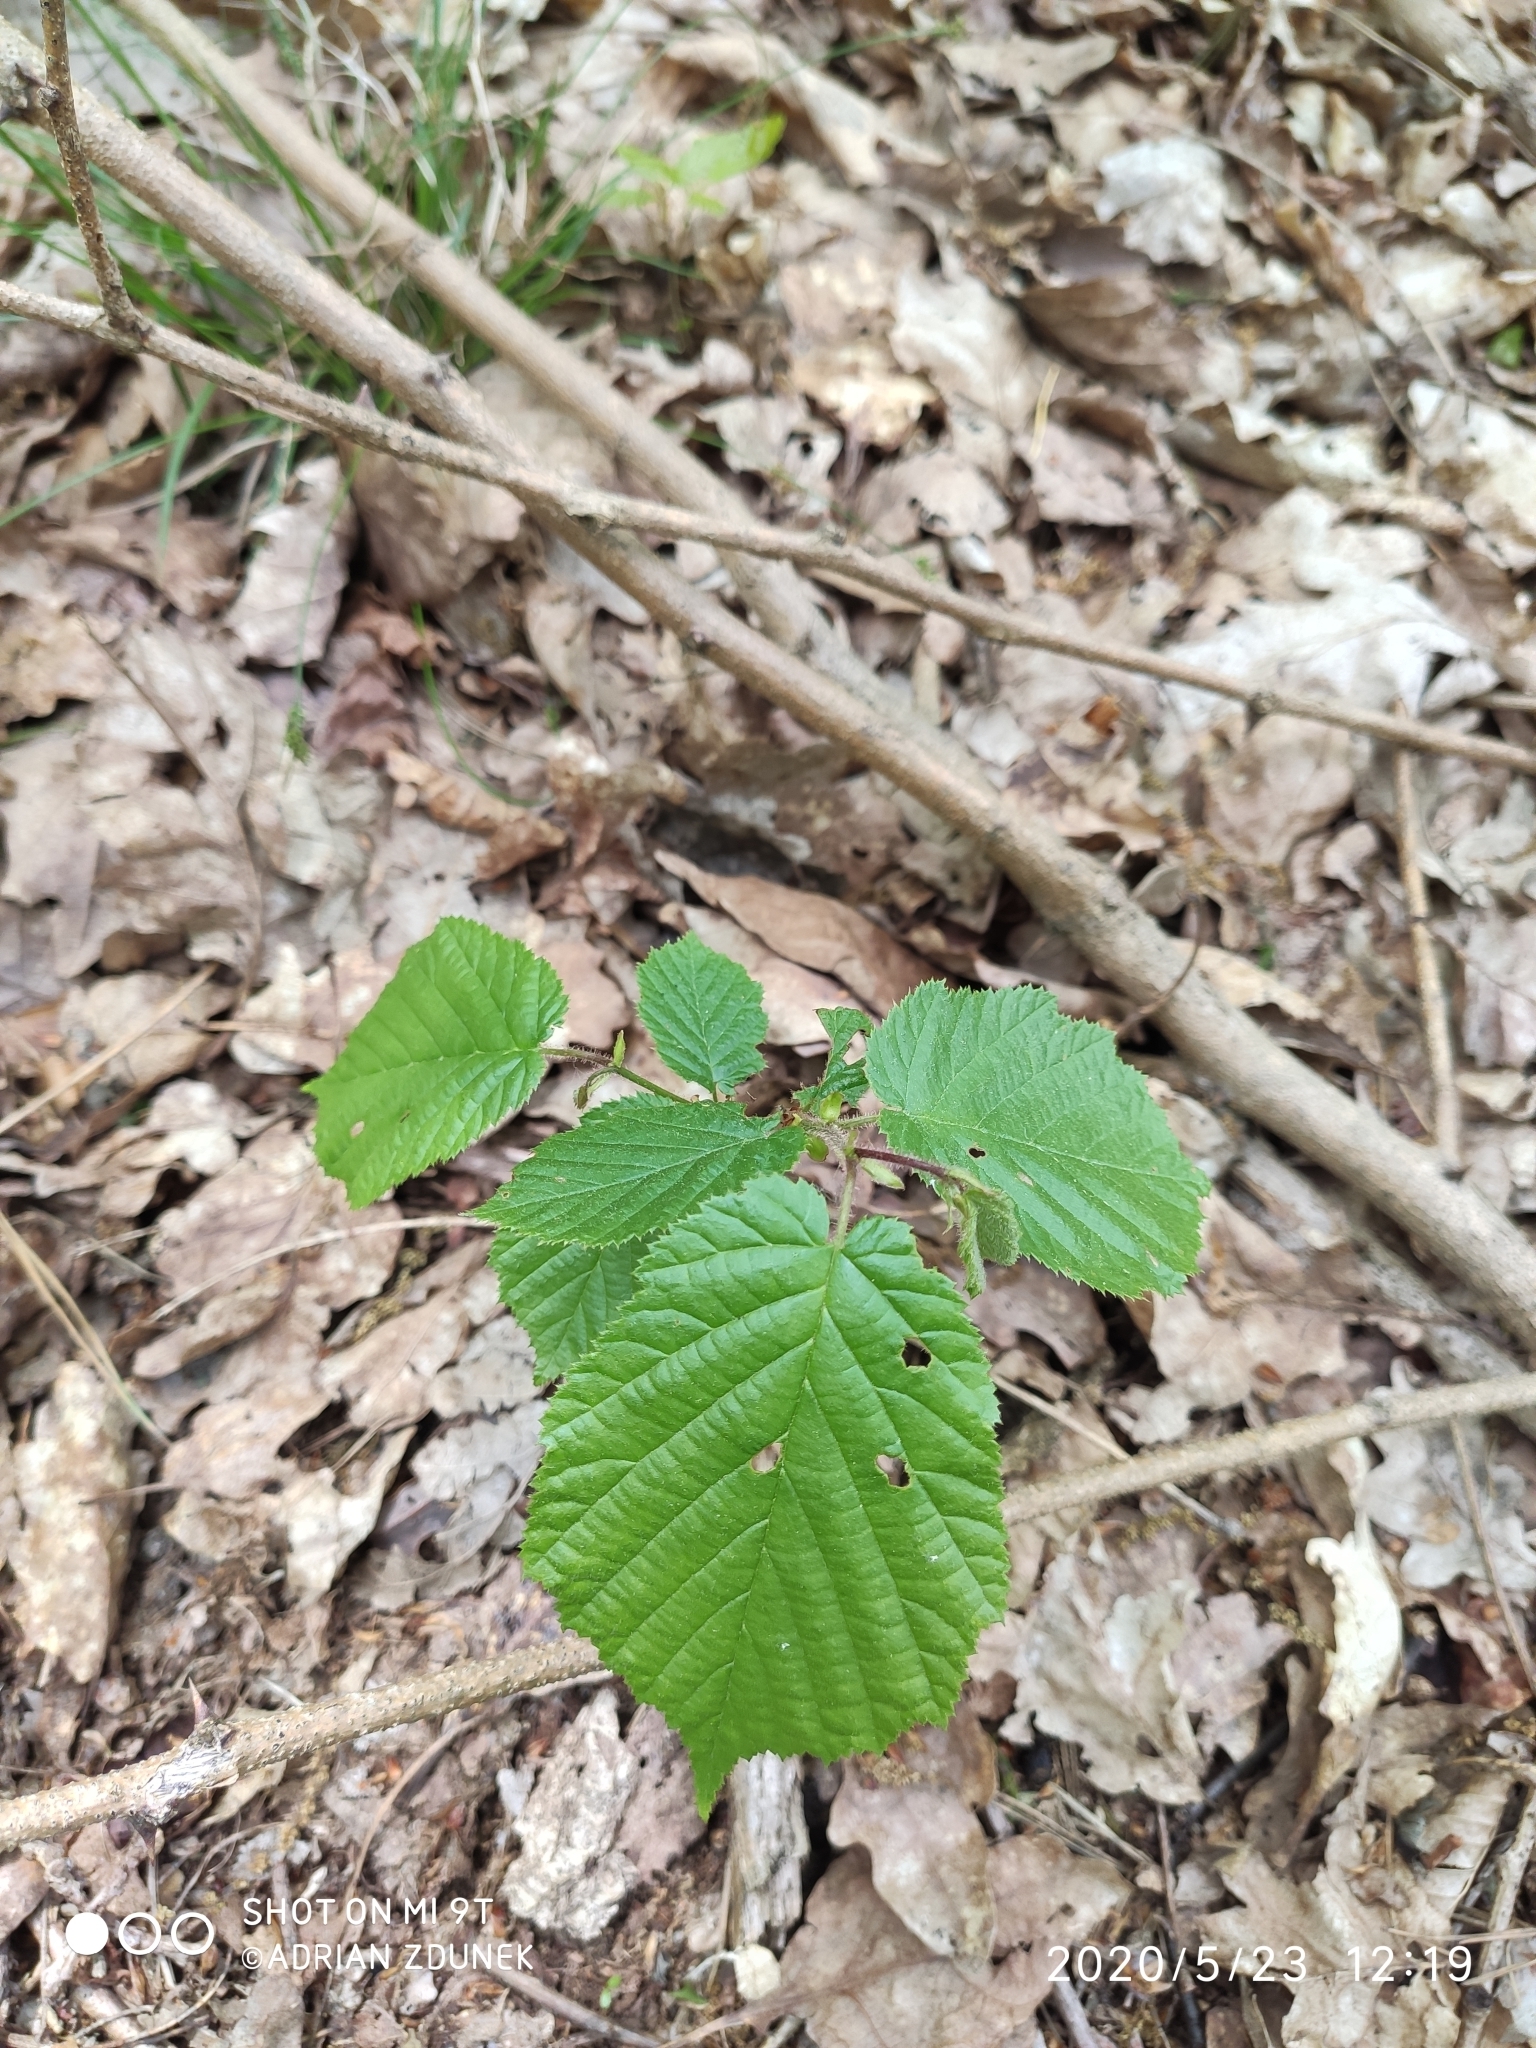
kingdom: Plantae
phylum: Tracheophyta
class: Magnoliopsida
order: Fagales
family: Betulaceae
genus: Corylus
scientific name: Corylus avellana
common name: European hazel
